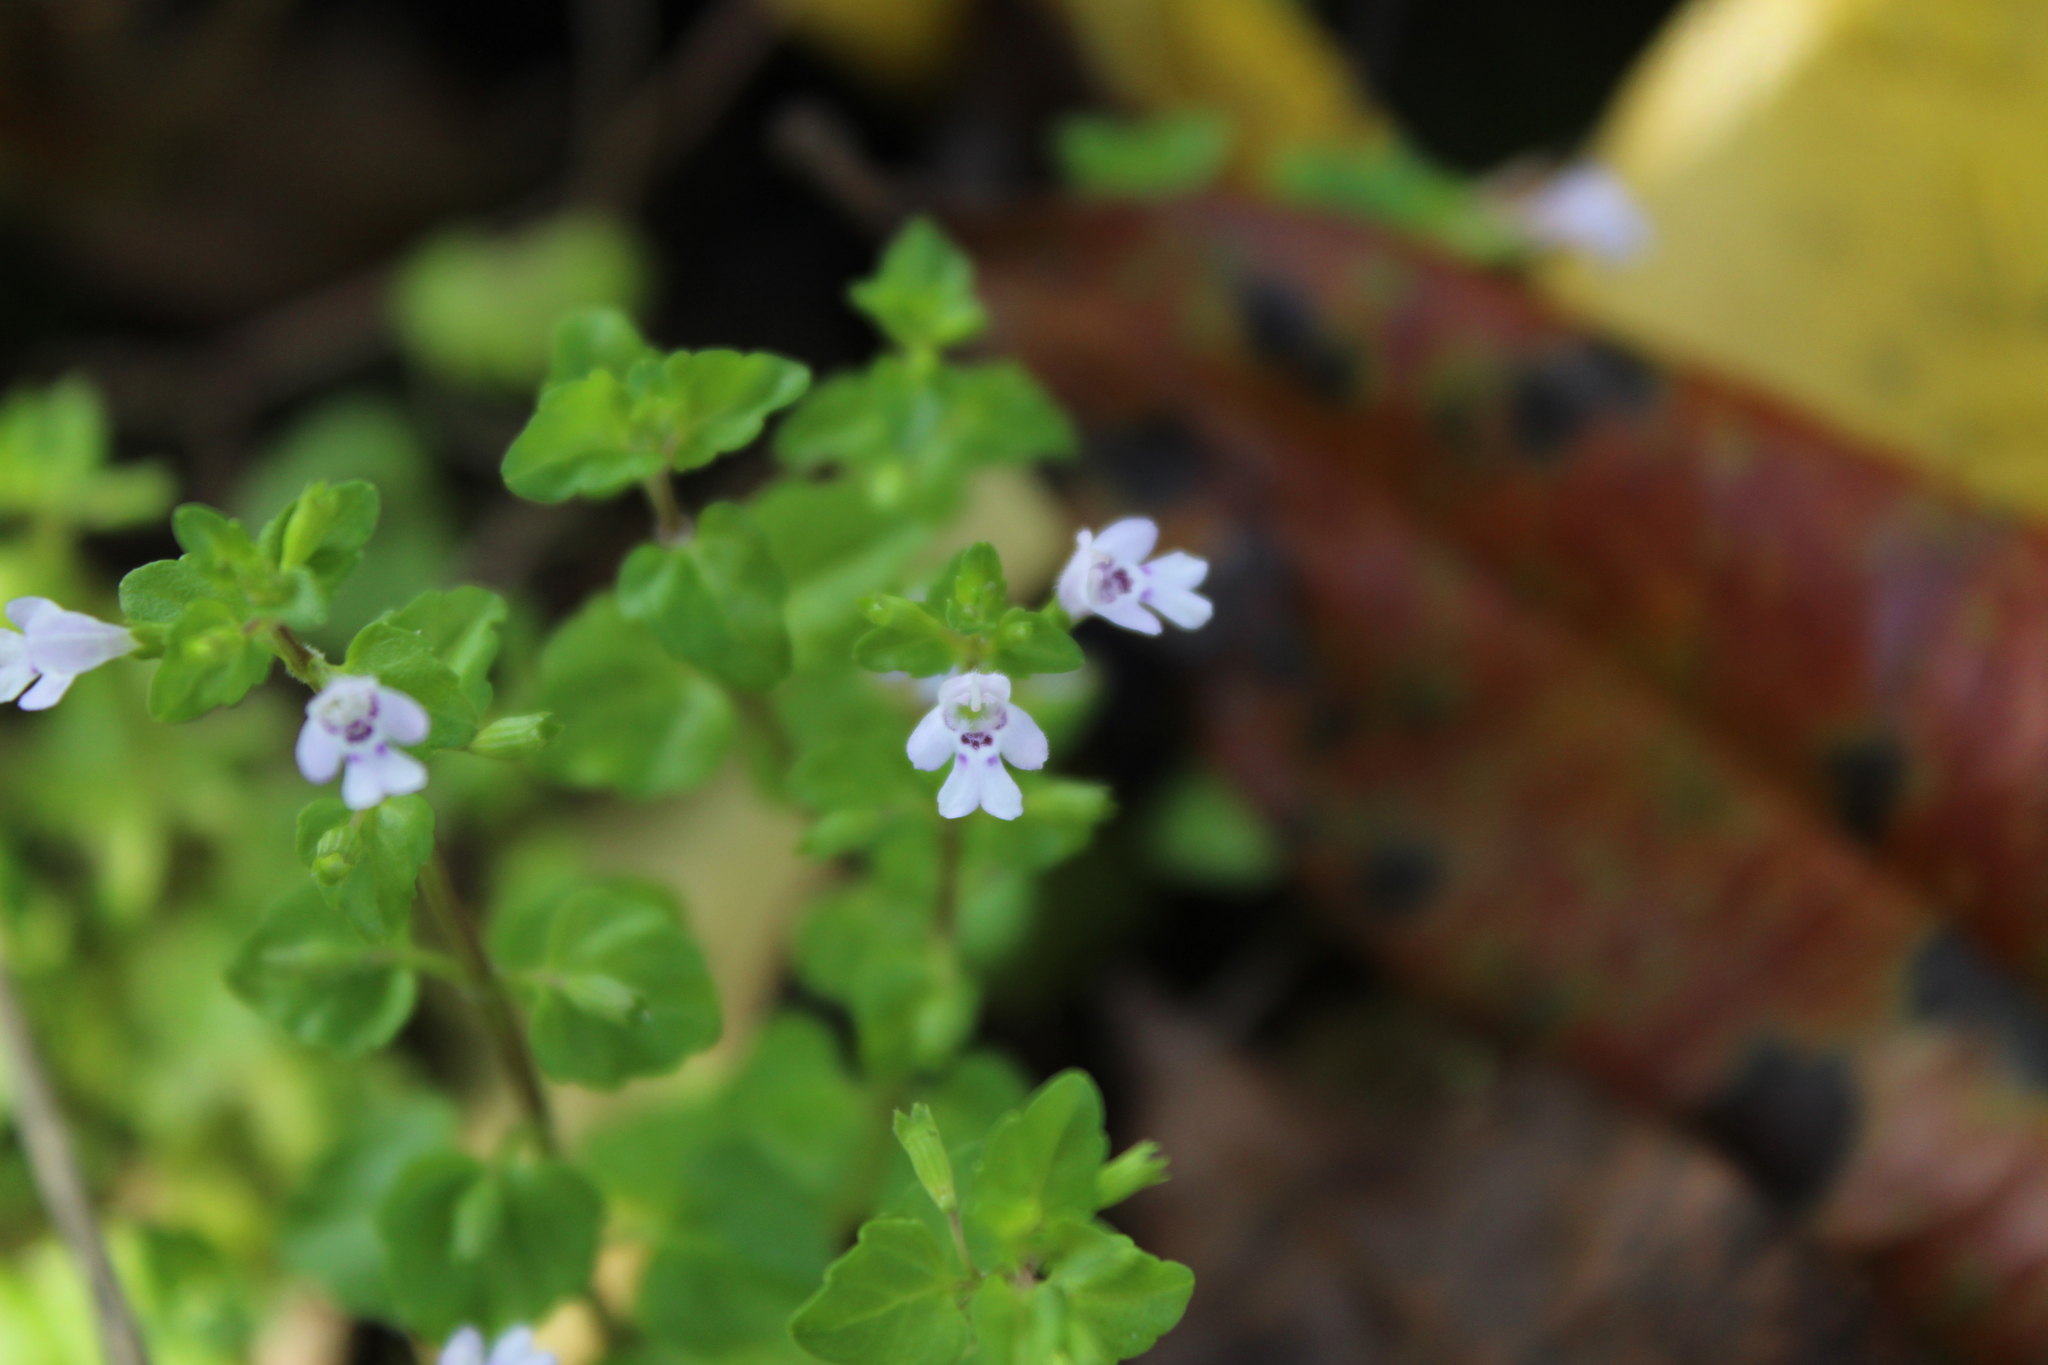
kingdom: Plantae
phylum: Tracheophyta
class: Magnoliopsida
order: Lamiales
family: Lamiaceae
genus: Clinopodium
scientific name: Clinopodium brownei
